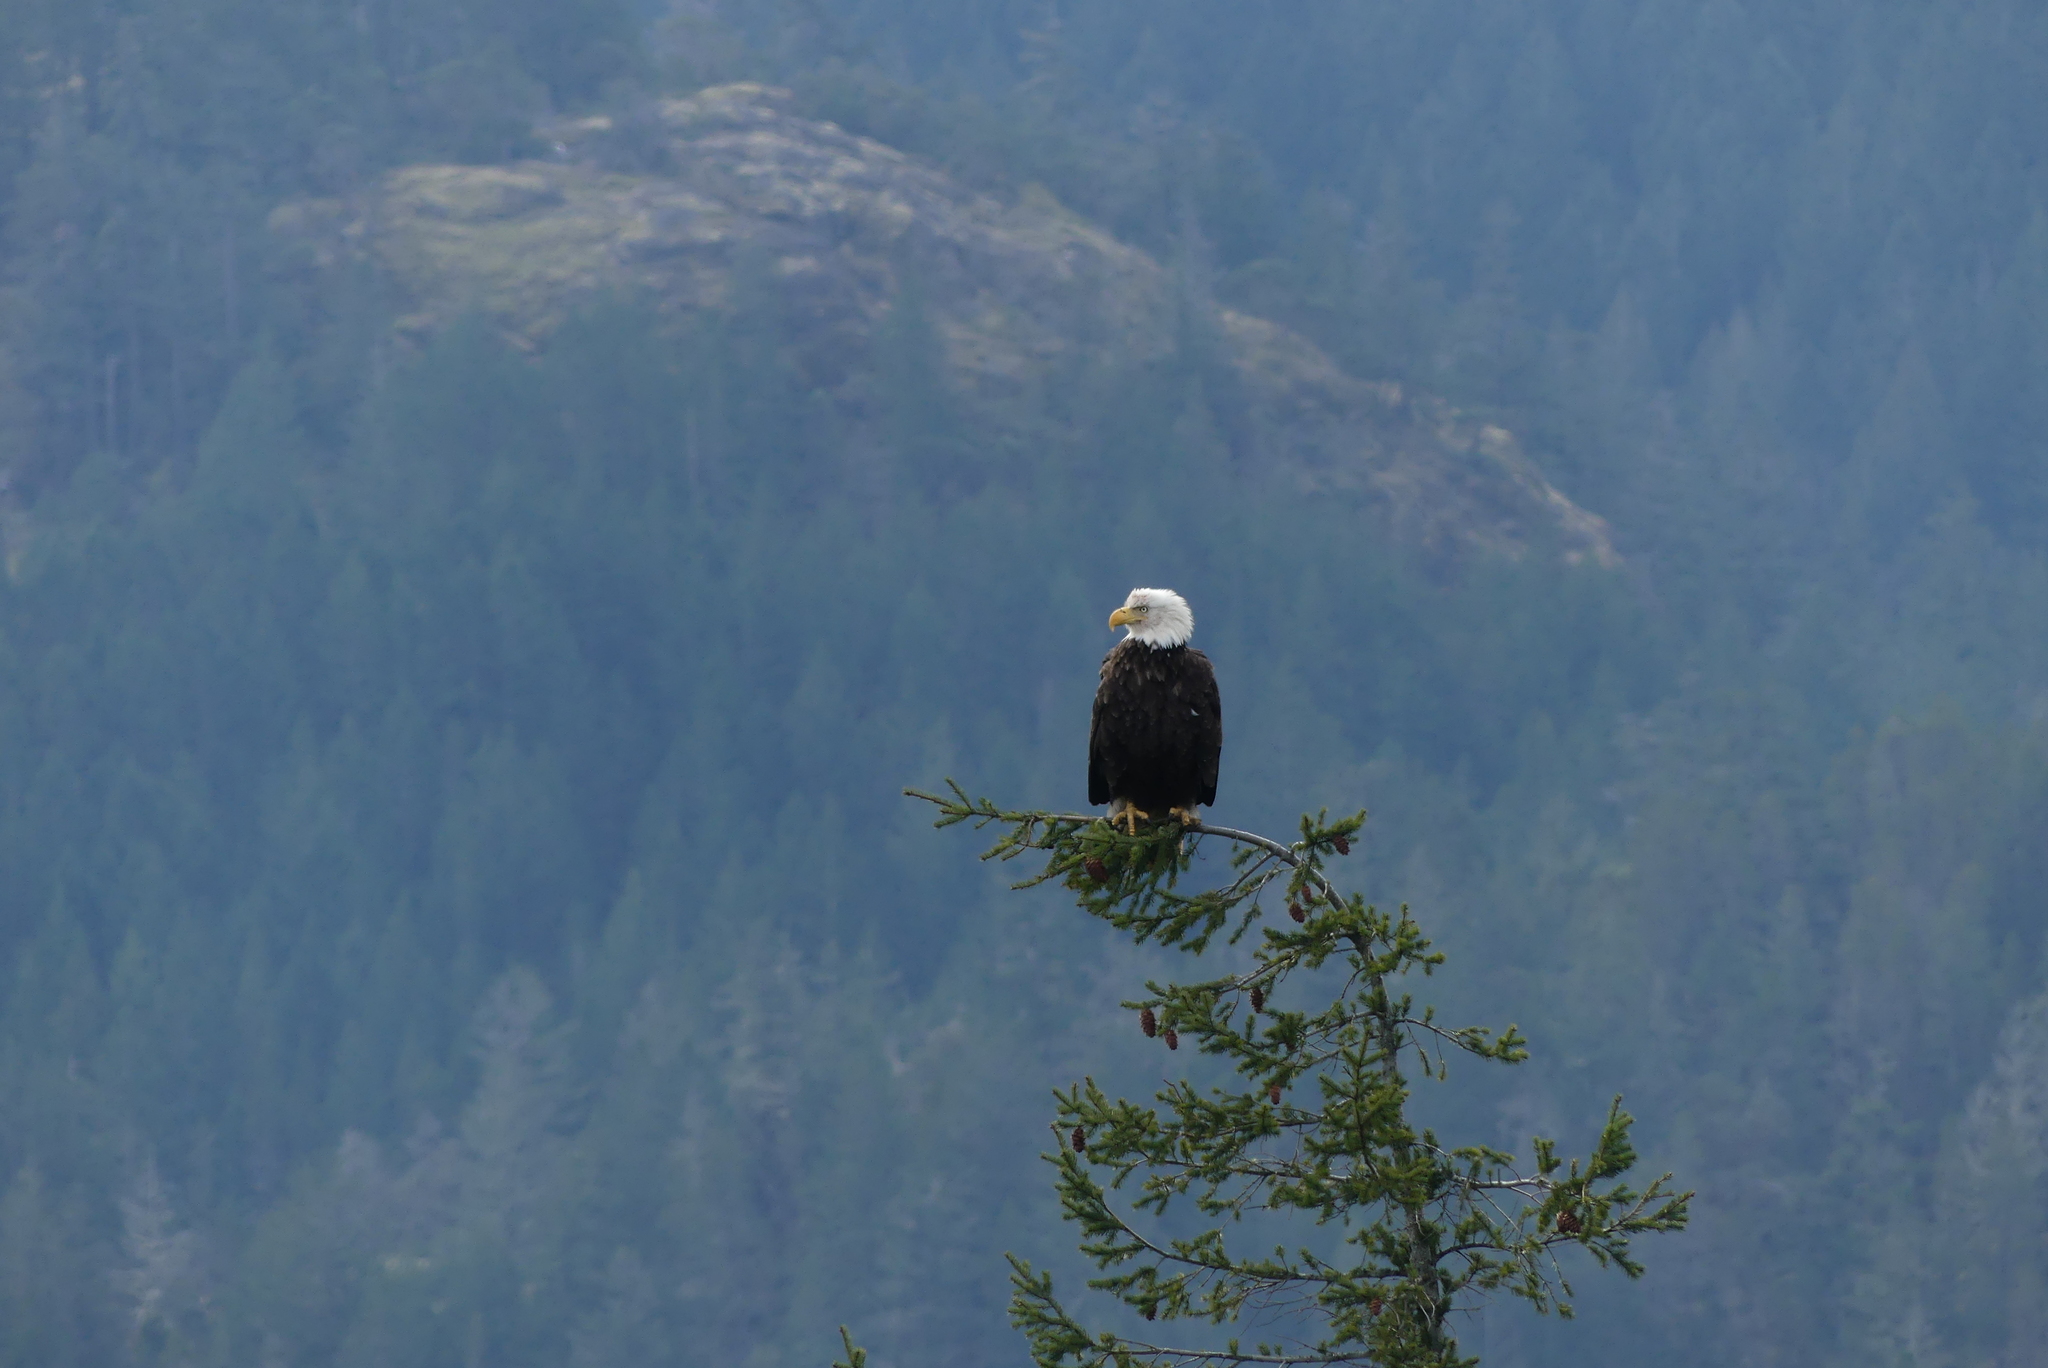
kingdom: Animalia
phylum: Chordata
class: Aves
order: Accipitriformes
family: Accipitridae
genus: Haliaeetus
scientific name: Haliaeetus leucocephalus
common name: Bald eagle
